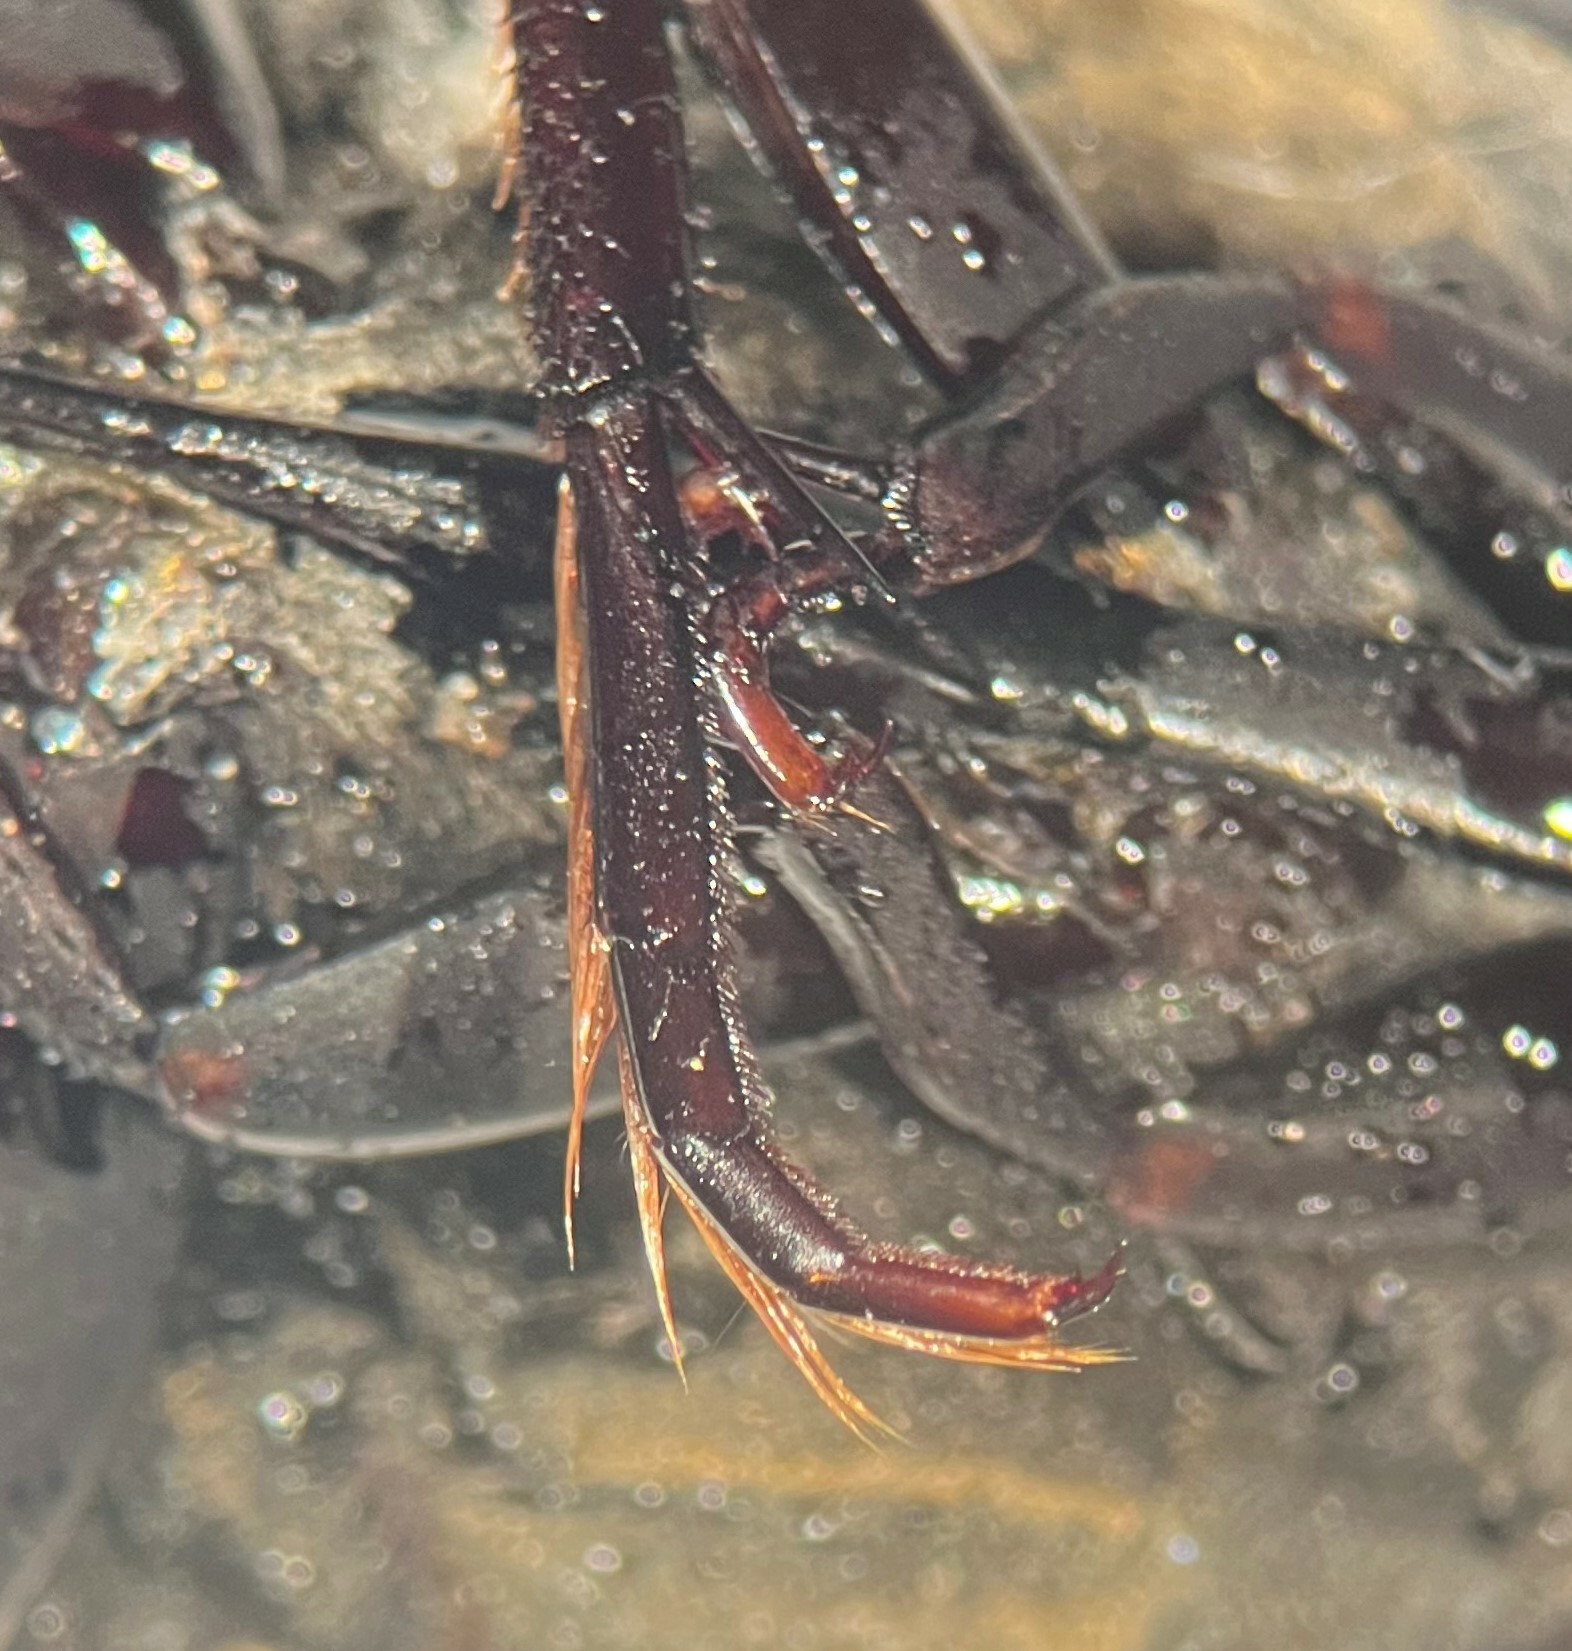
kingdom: Animalia
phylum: Arthropoda
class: Insecta
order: Coleoptera
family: Hydrophilidae
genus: Hydrophilus
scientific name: Hydrophilus triangularis
